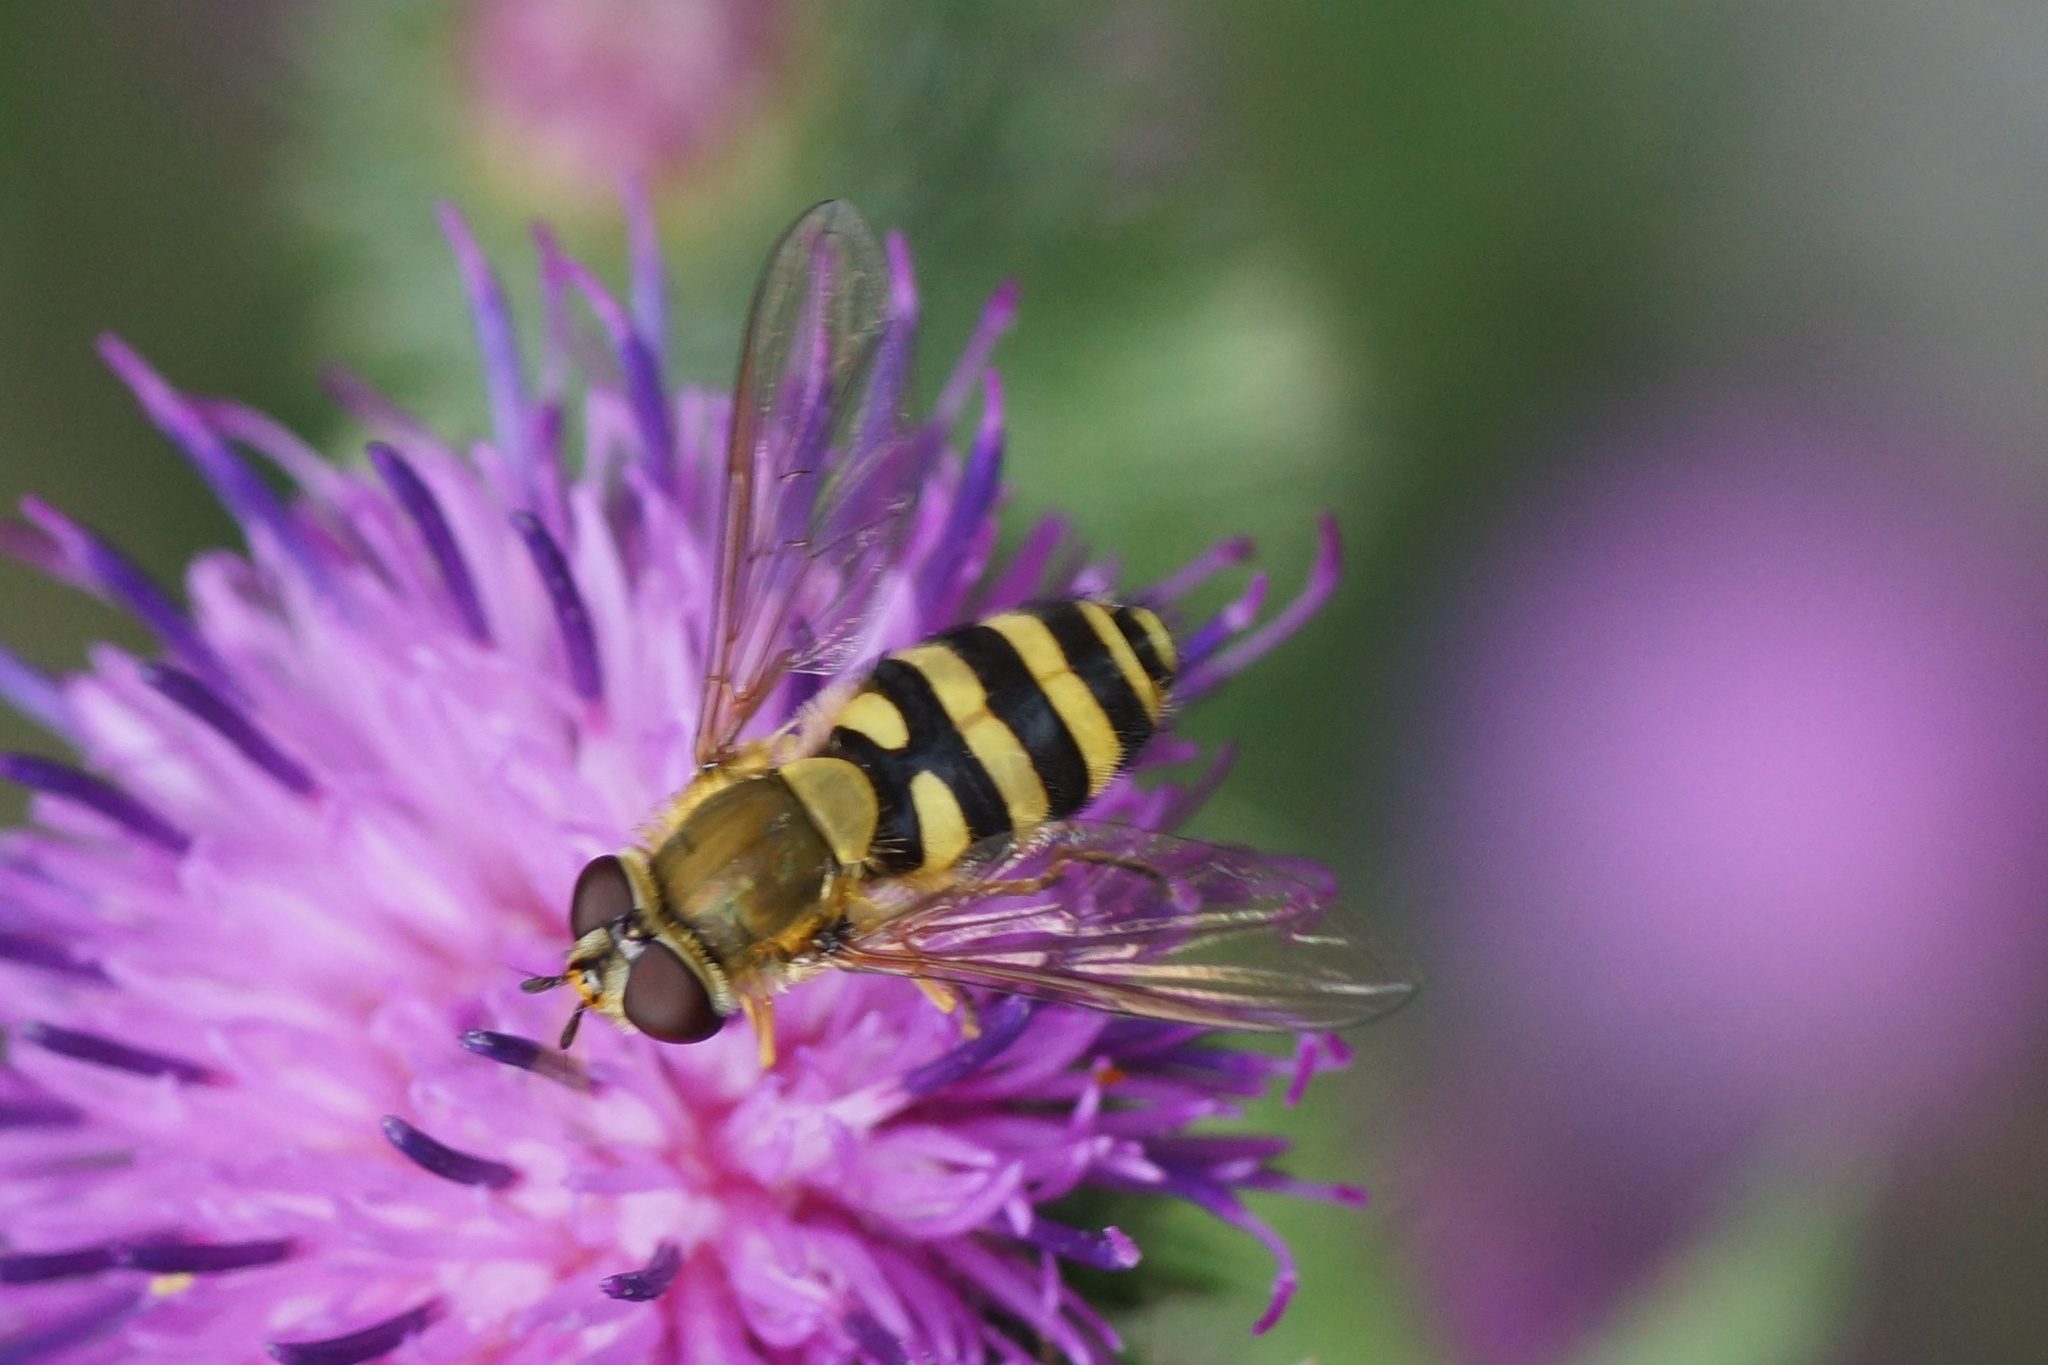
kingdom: Animalia
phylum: Arthropoda
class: Insecta
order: Diptera
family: Syrphidae
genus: Syrphus
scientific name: Syrphus
